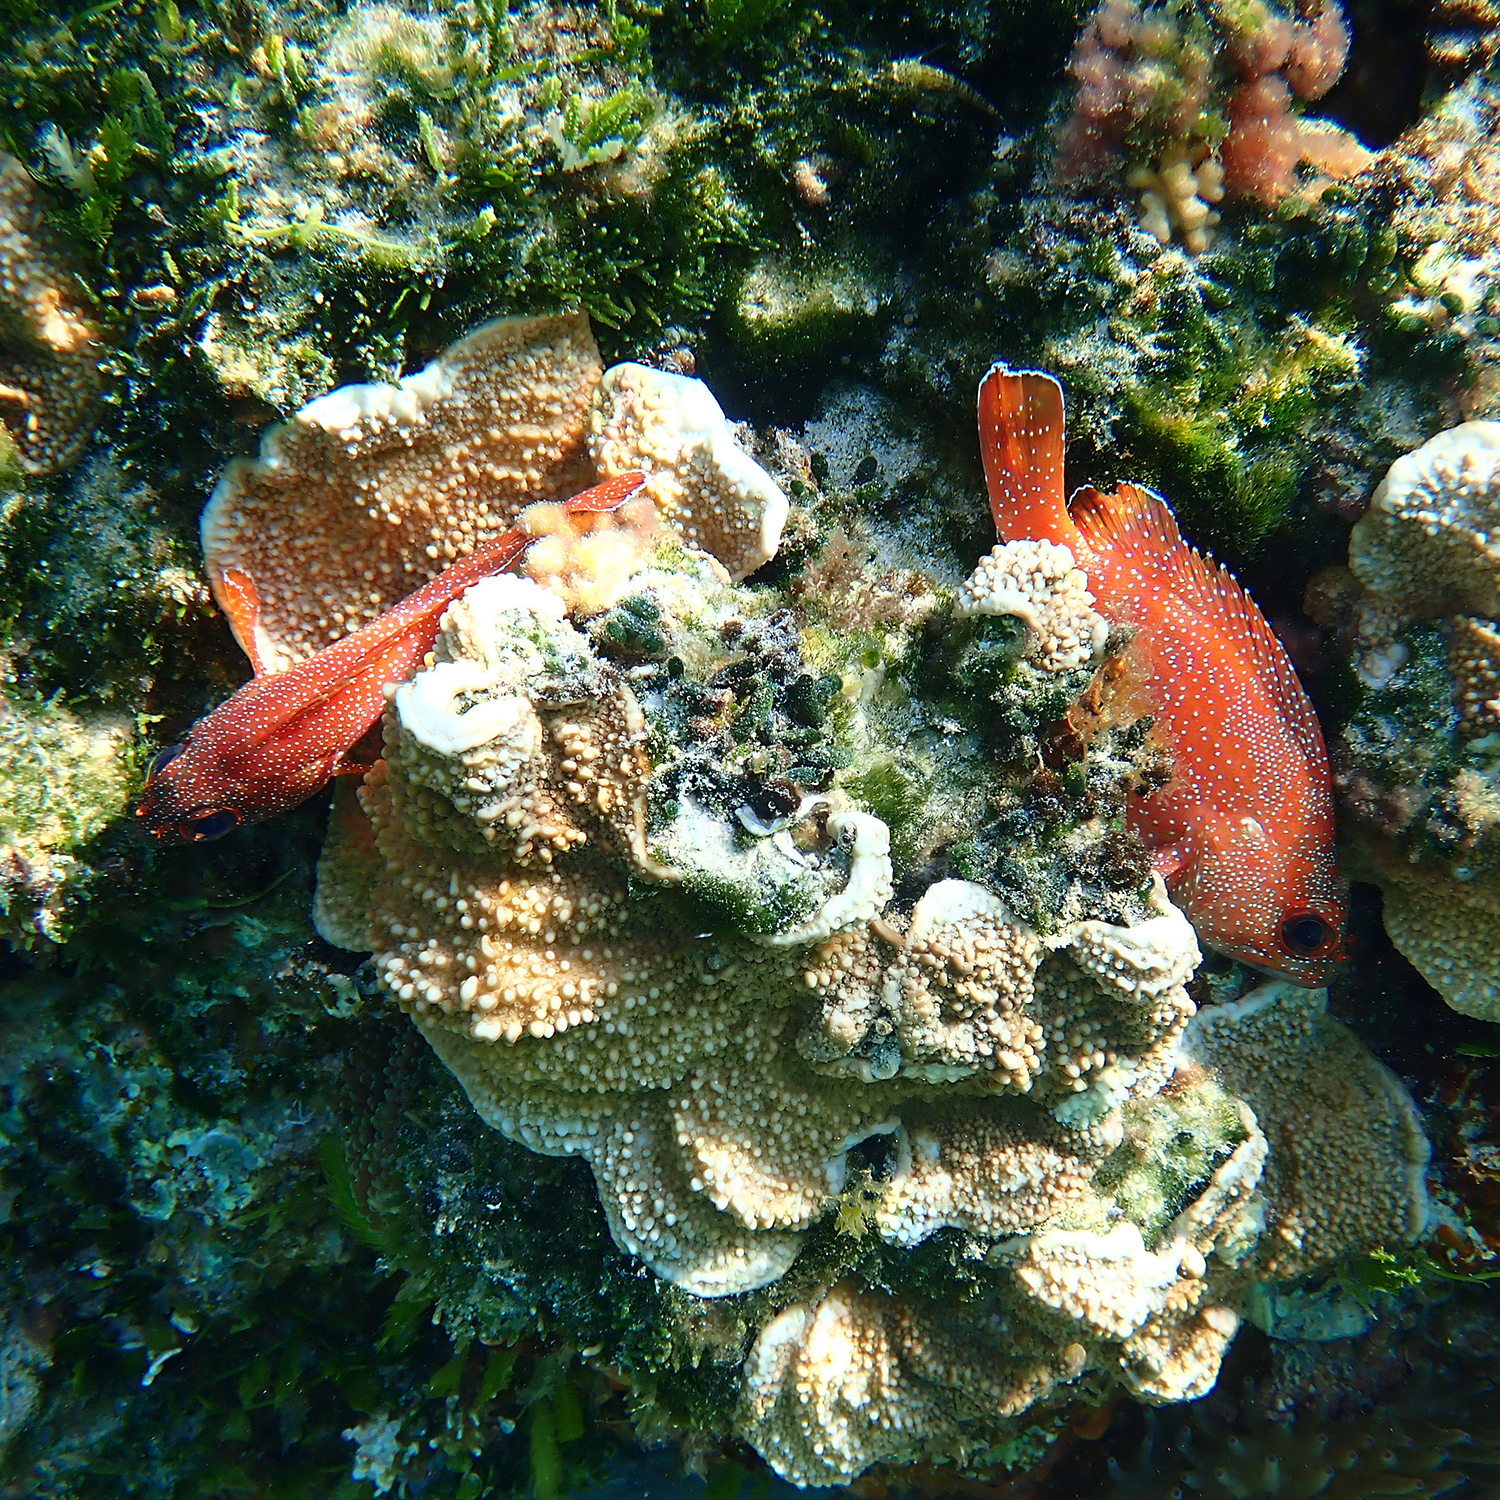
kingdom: Animalia
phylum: Chordata
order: Perciformes
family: Serranidae
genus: Trachypoma
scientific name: Trachypoma macracanthus
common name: Toadstool grouper
